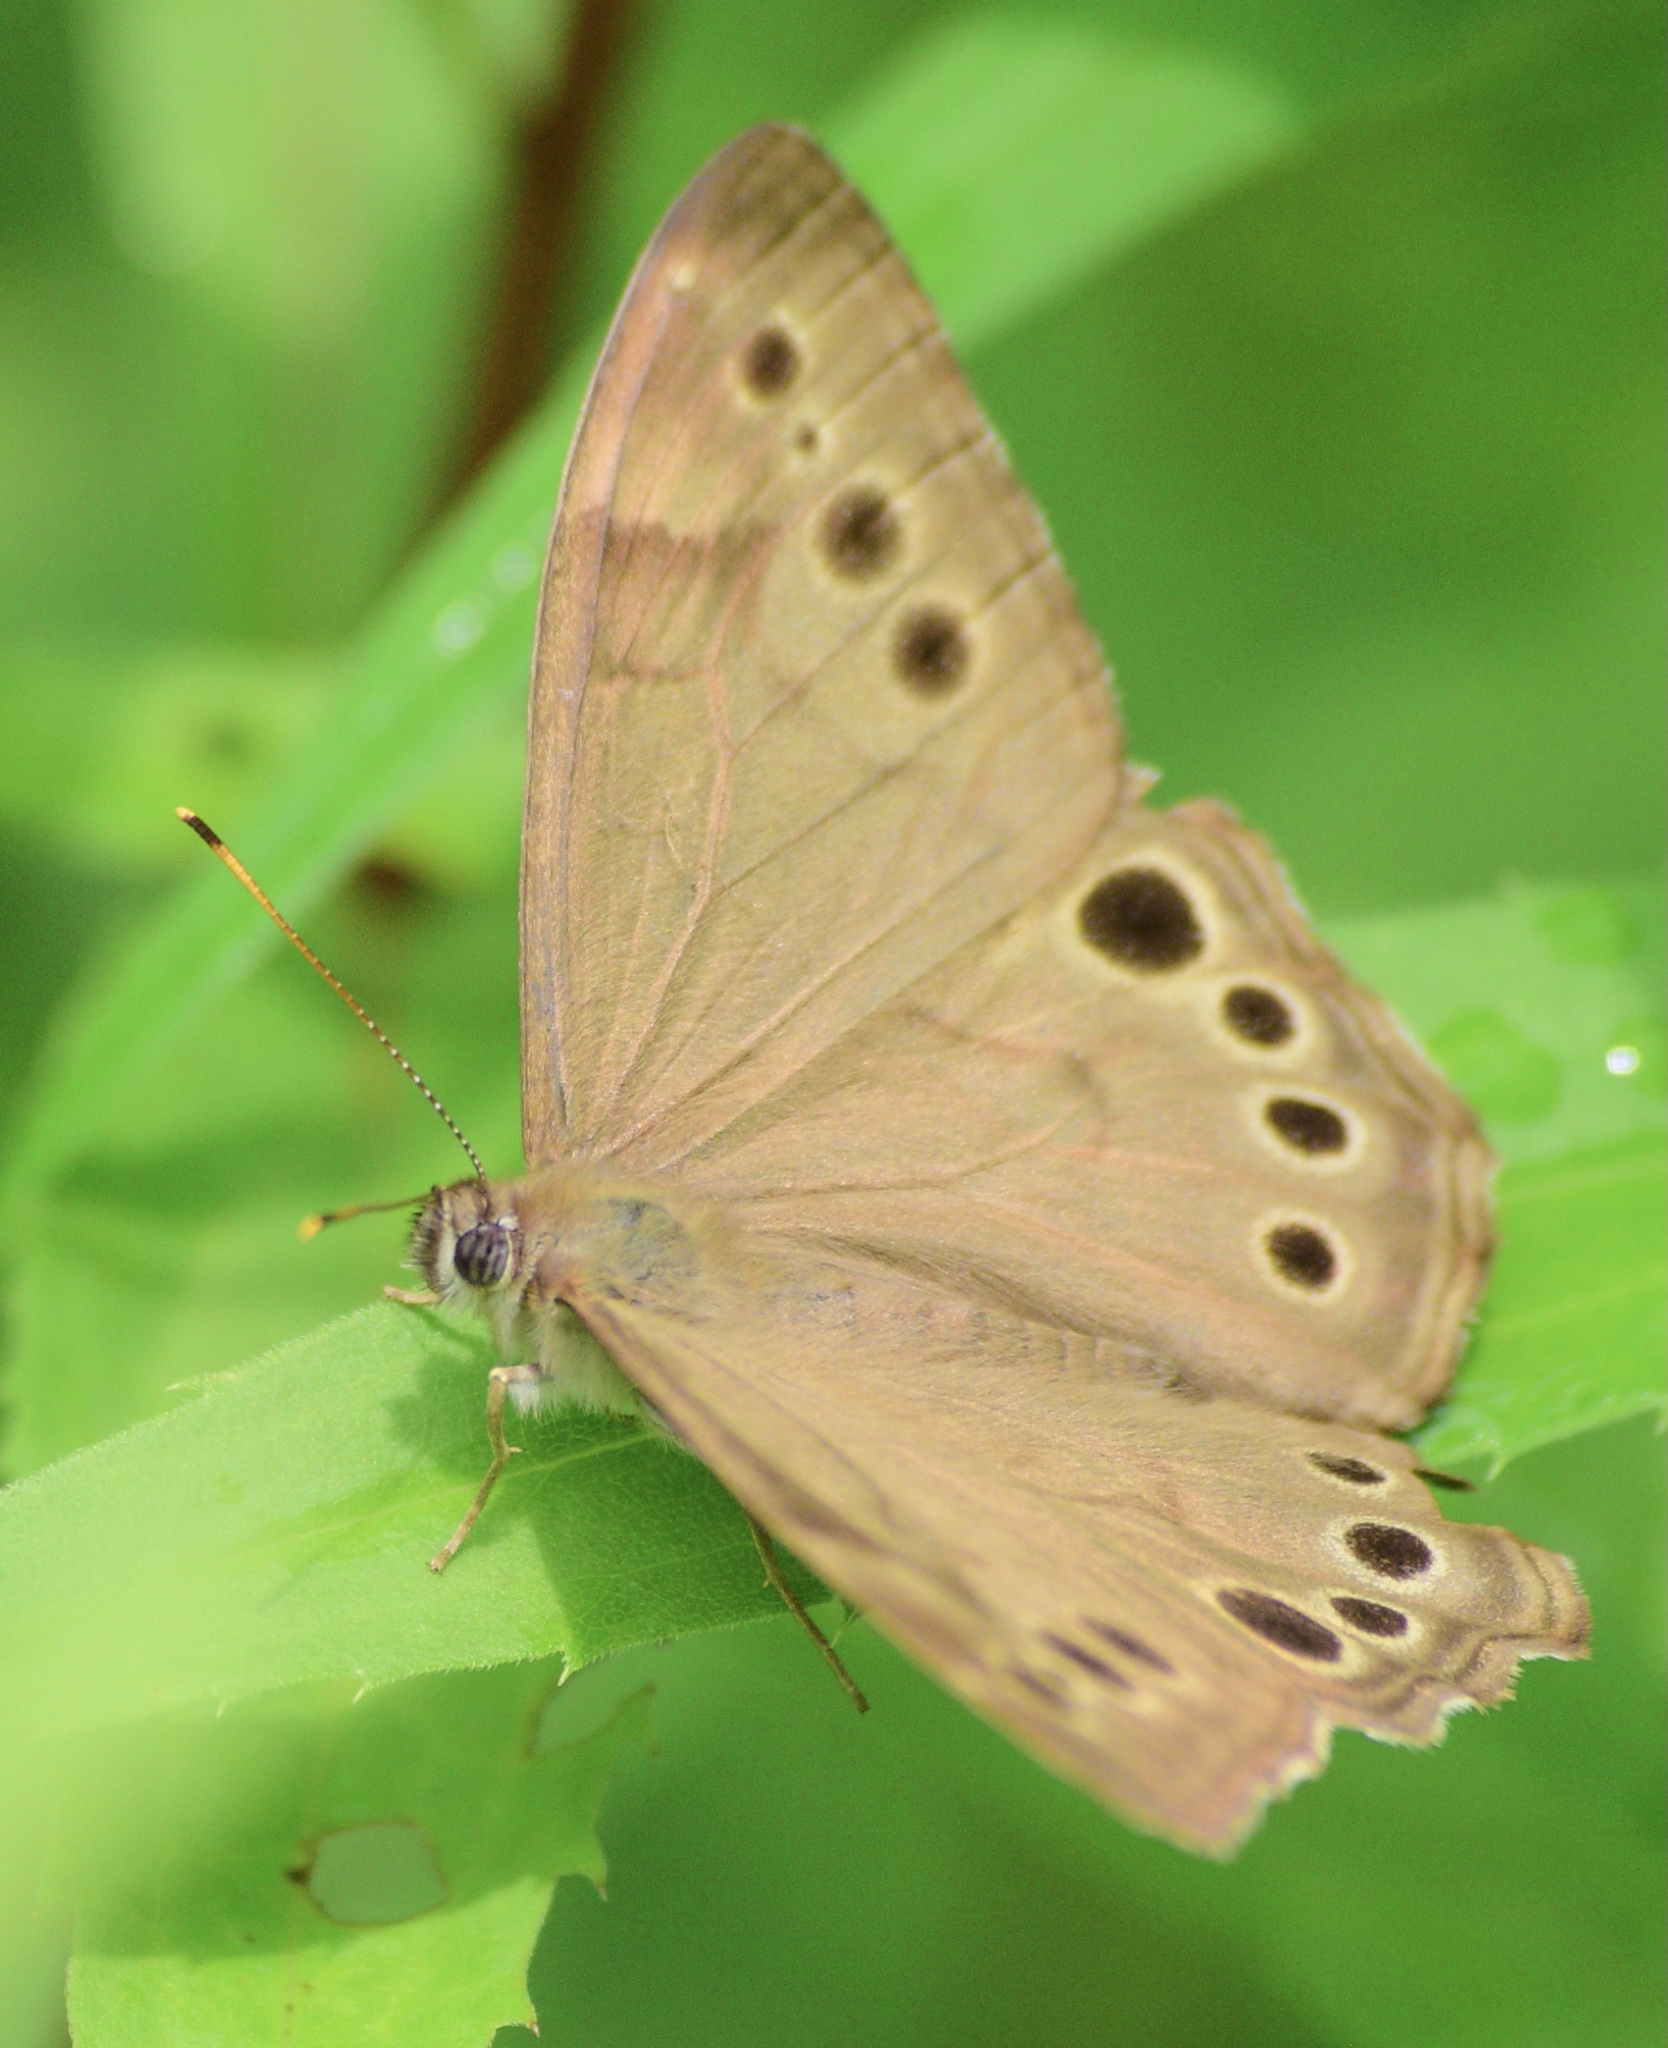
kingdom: Animalia
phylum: Arthropoda
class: Insecta
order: Lepidoptera
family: Nymphalidae
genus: Lethe
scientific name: Lethe anthedon
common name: Northern pearly-eye
